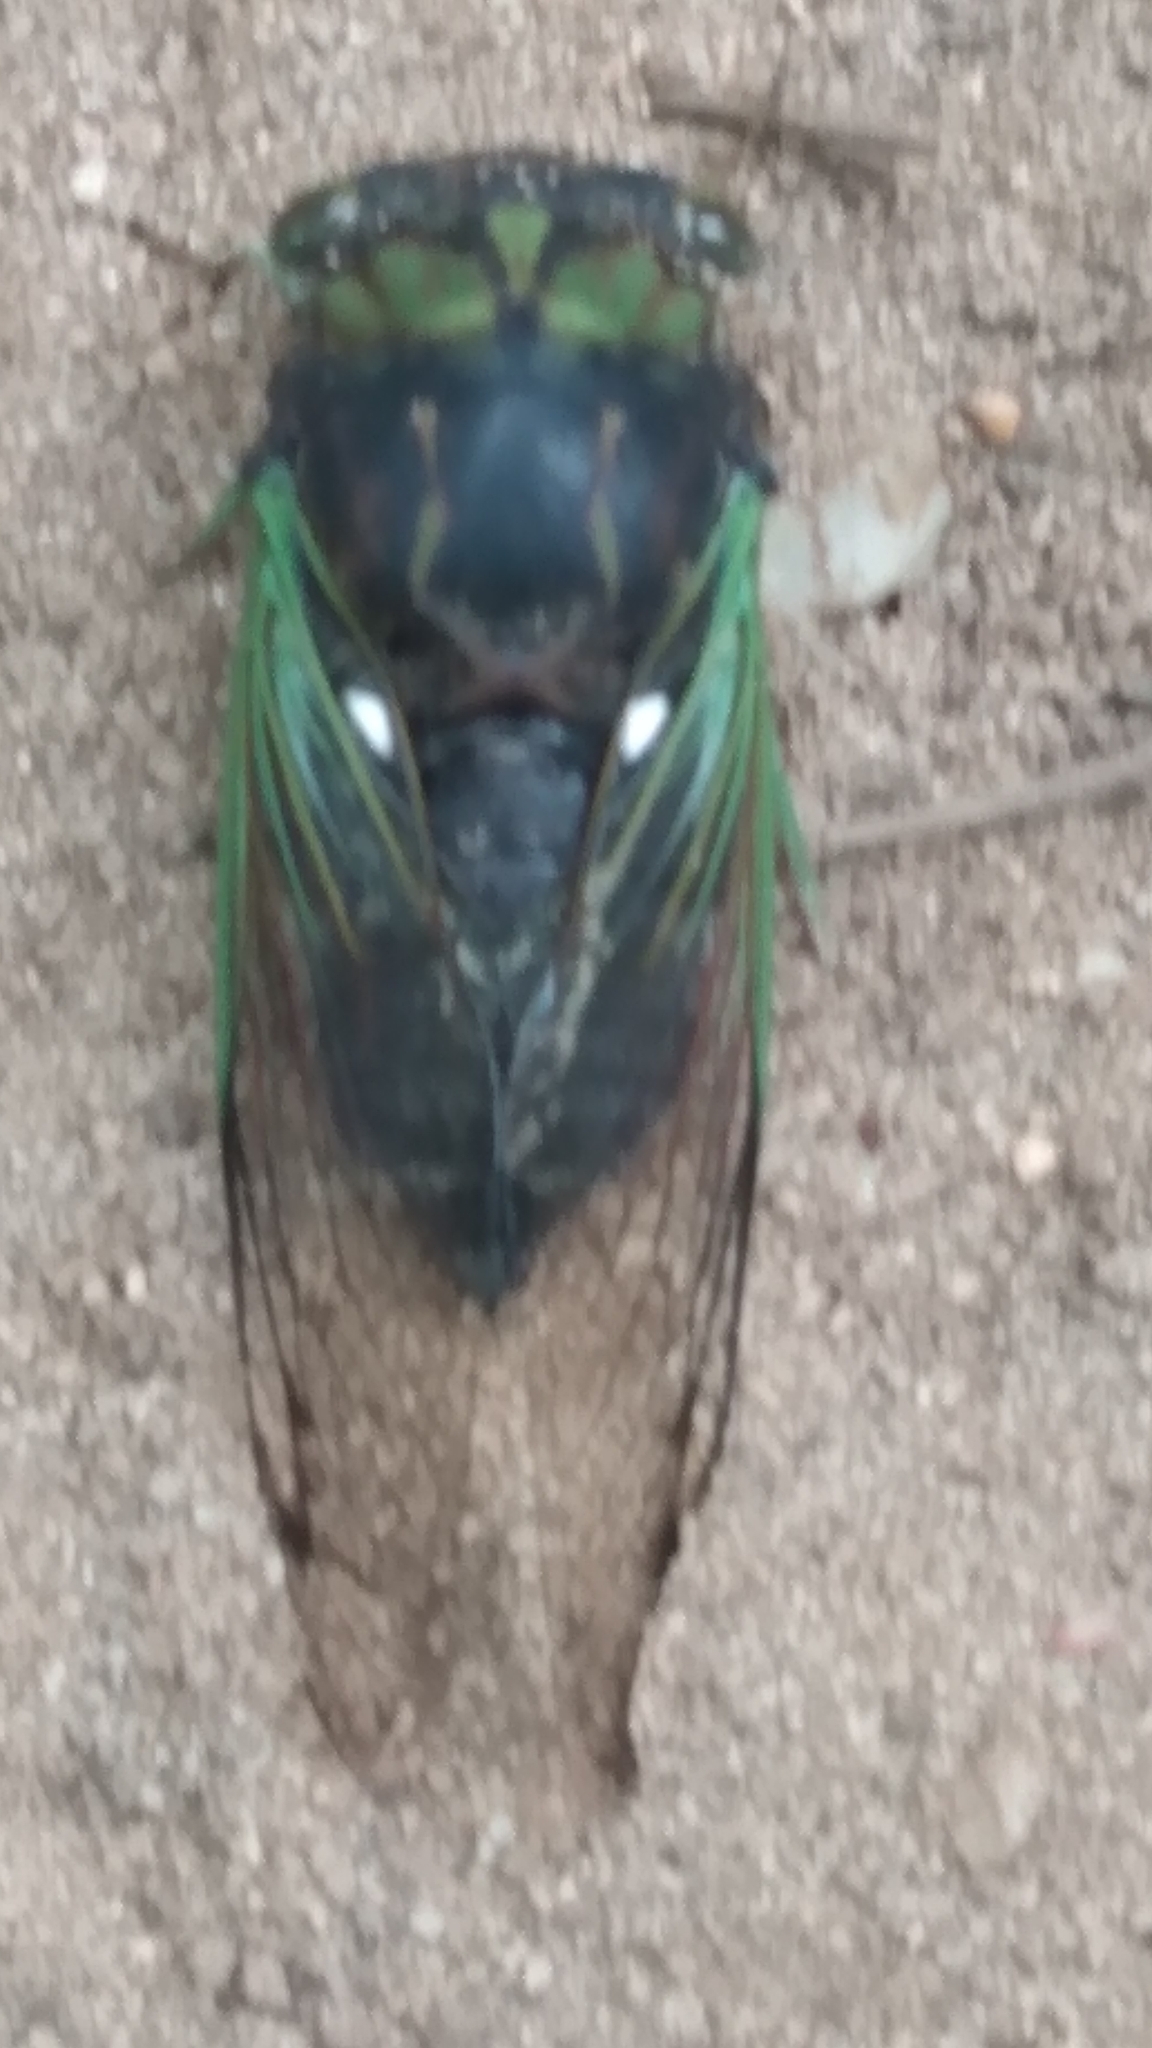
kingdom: Animalia
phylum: Arthropoda
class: Insecta
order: Hemiptera
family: Cicadidae
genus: Neotibicen
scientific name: Neotibicen tibicen
